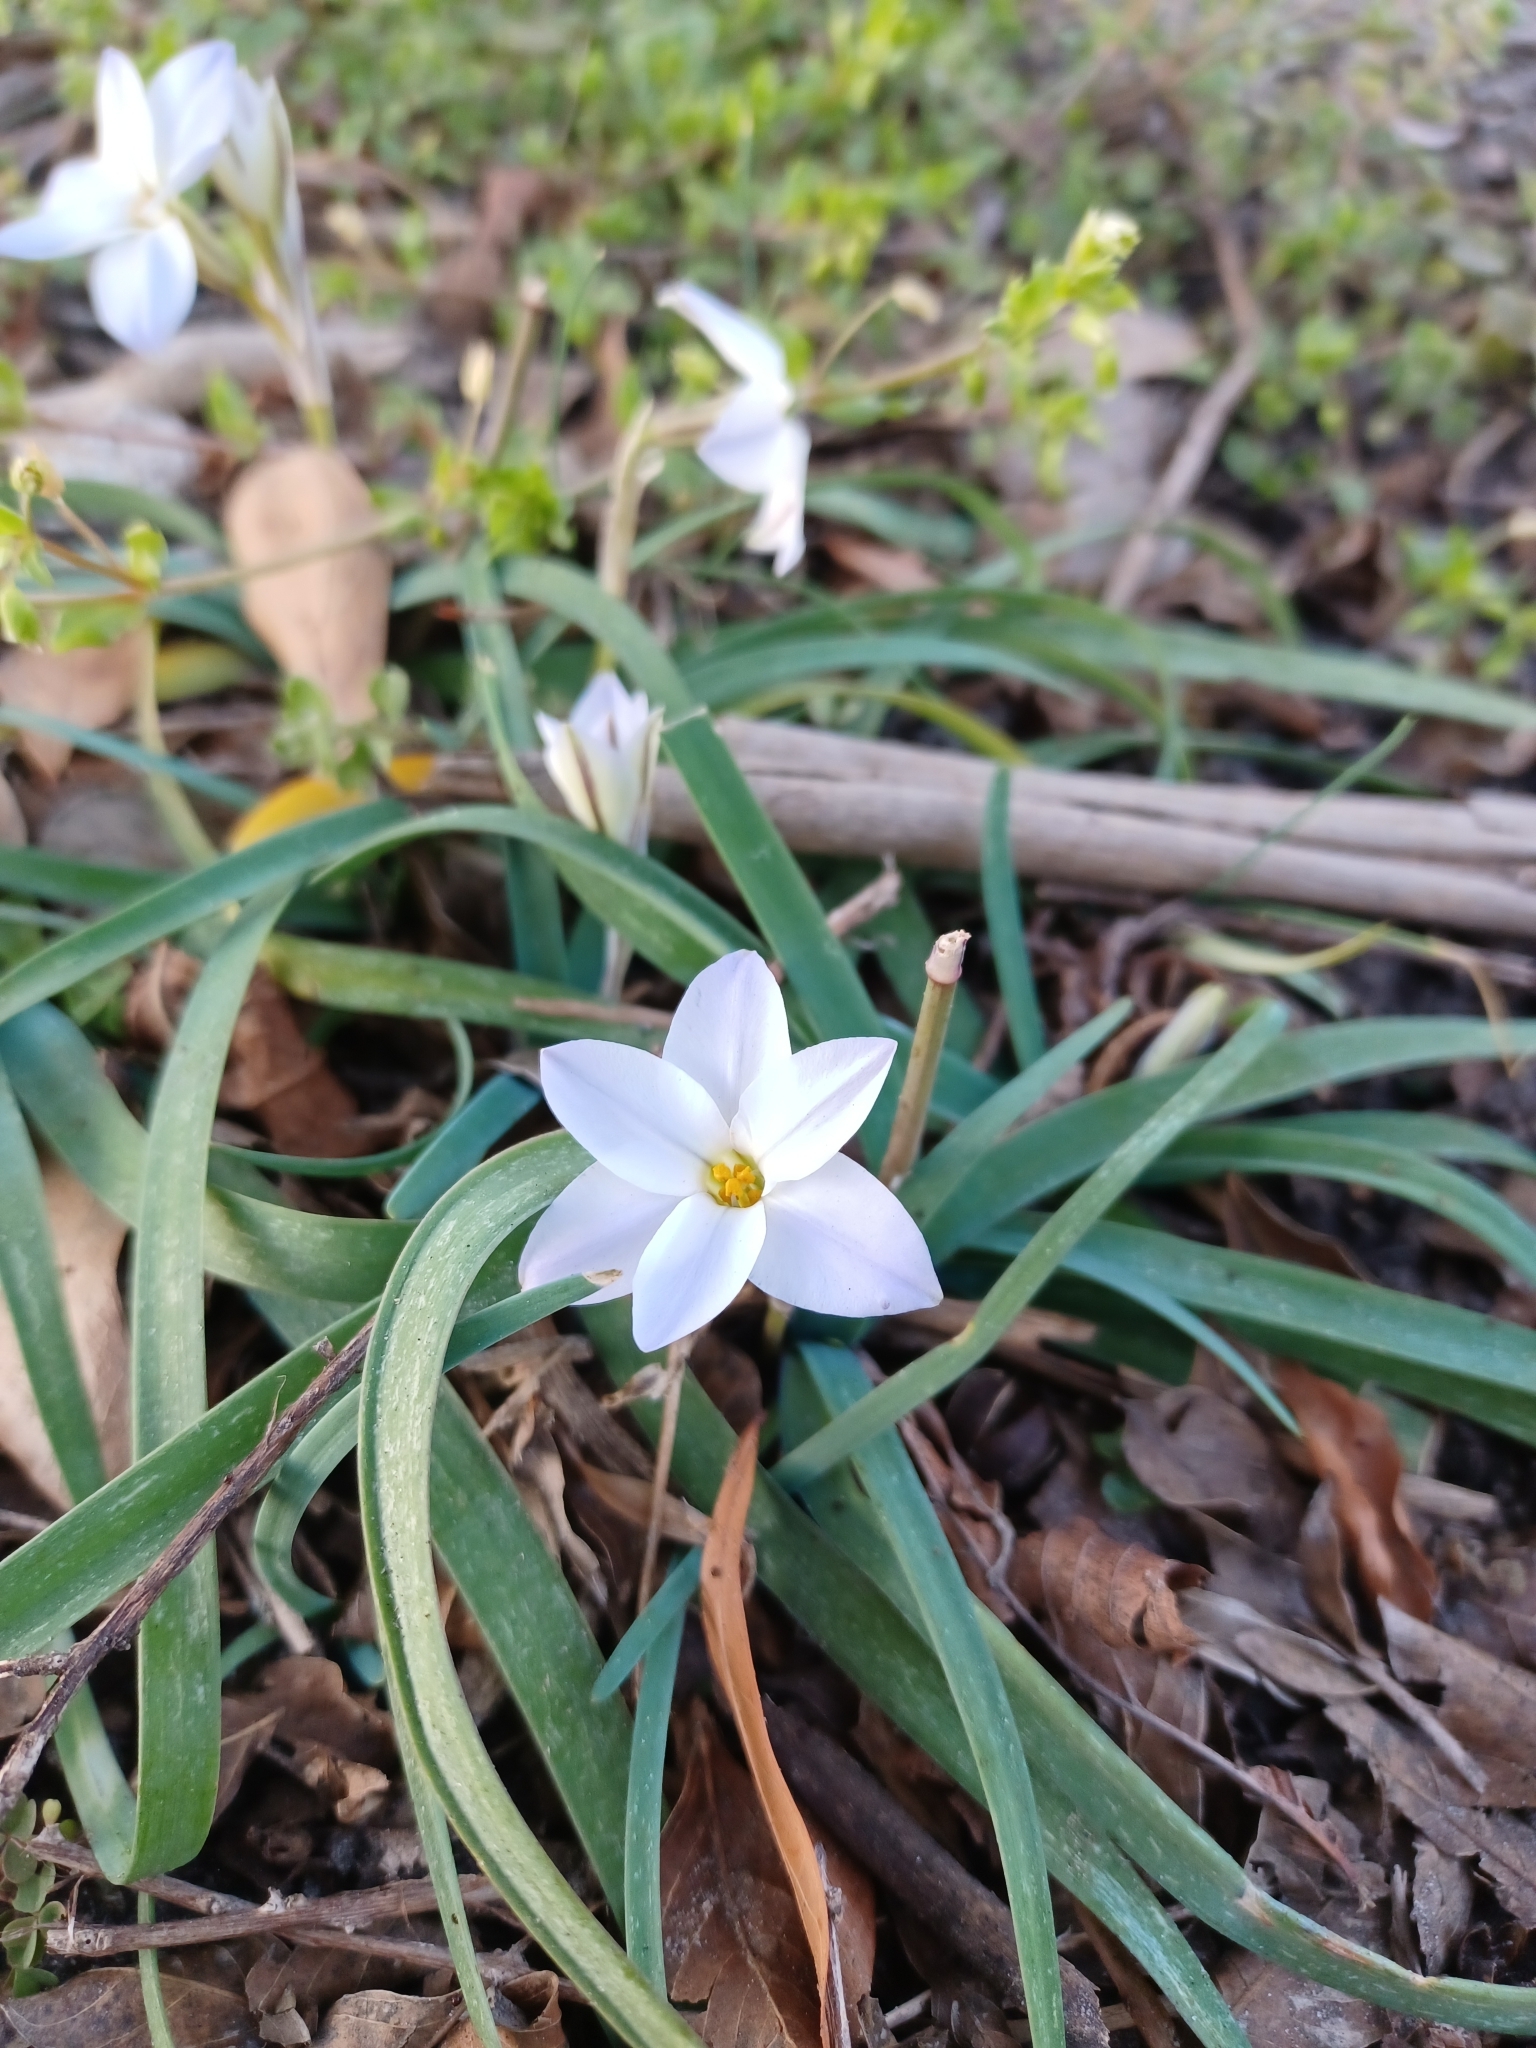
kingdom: Plantae
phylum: Tracheophyta
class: Liliopsida
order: Asparagales
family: Amaryllidaceae
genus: Ipheion
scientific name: Ipheion uniflorum
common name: Spring starflower
